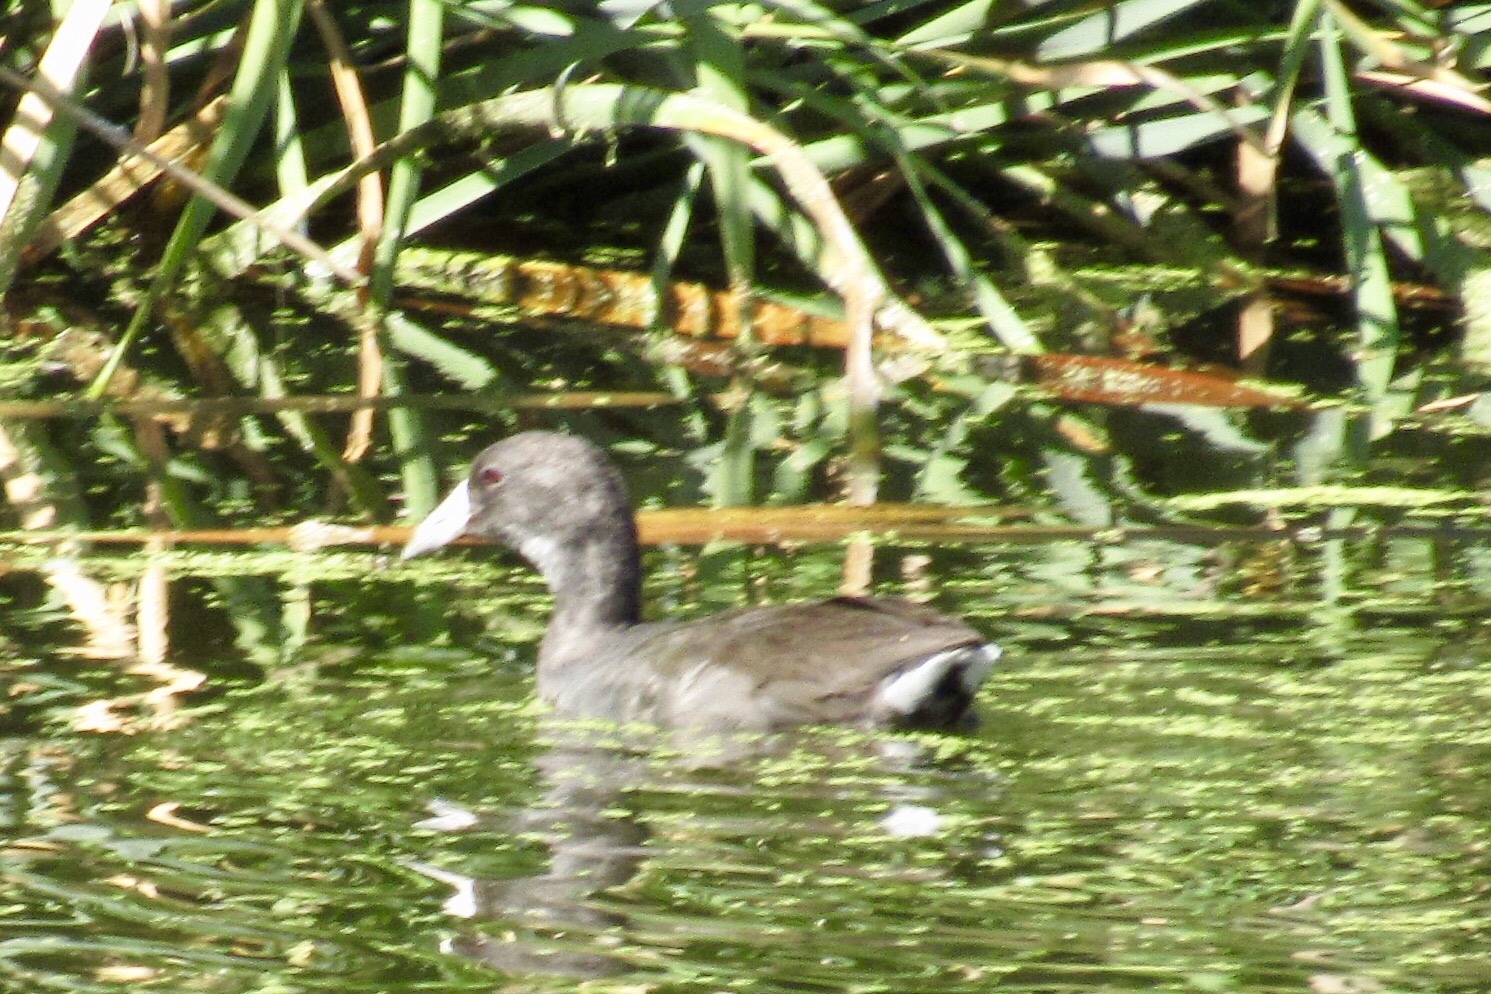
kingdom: Animalia
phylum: Chordata
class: Aves
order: Gruiformes
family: Rallidae
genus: Fulica
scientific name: Fulica americana
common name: American coot
